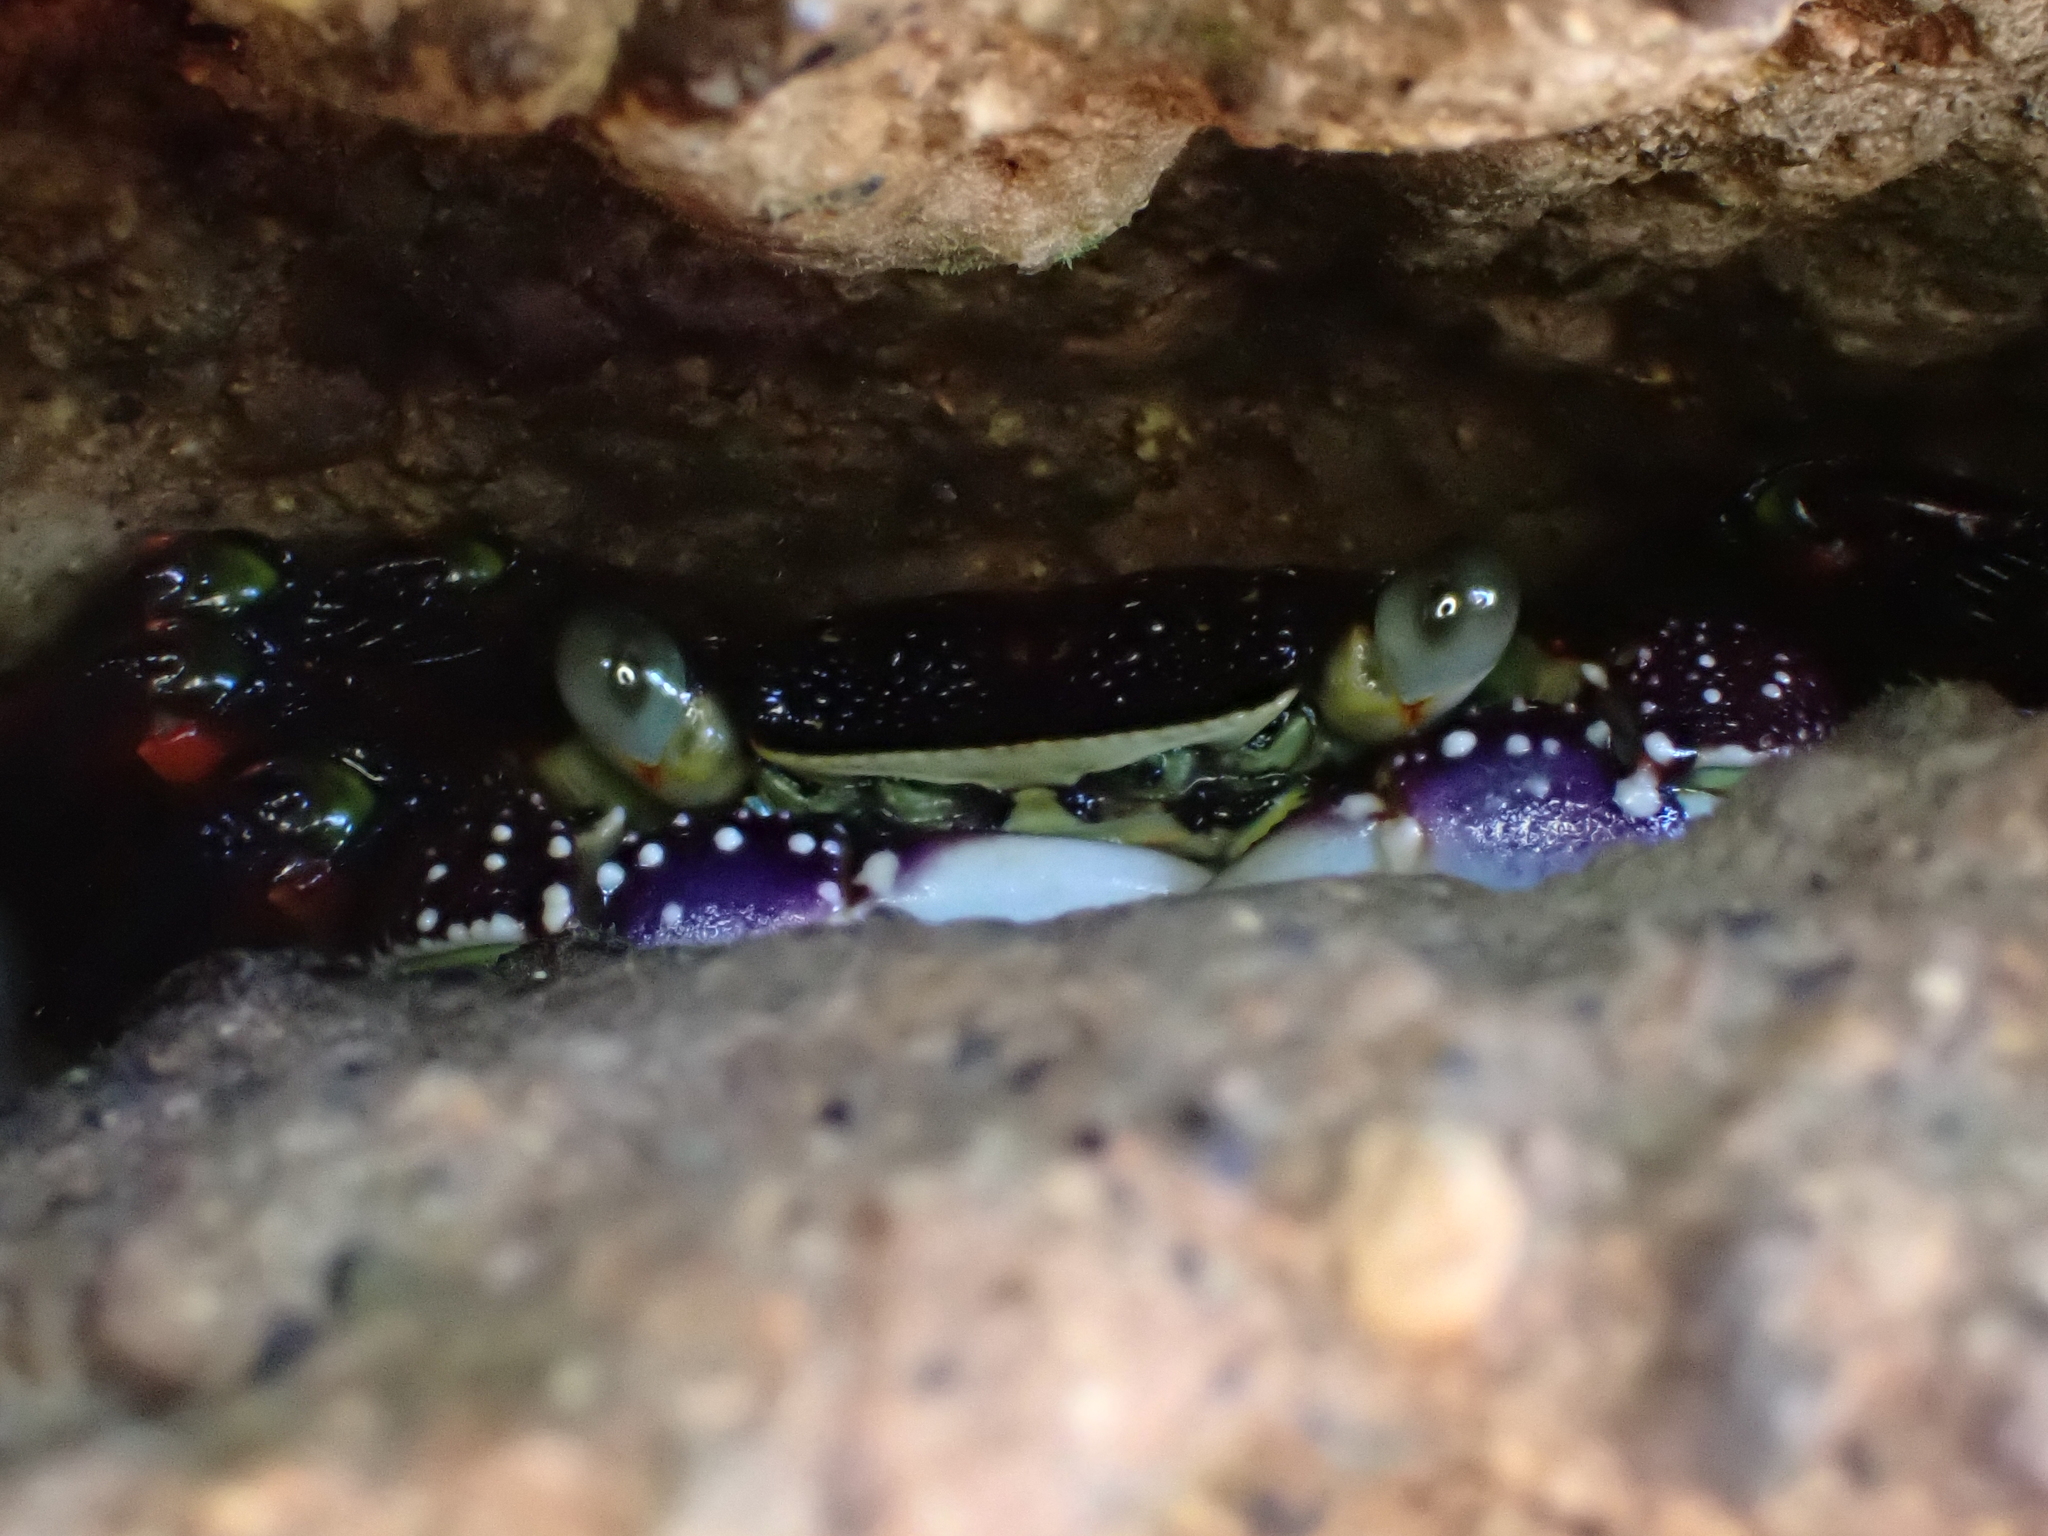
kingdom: Animalia
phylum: Arthropoda
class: Malacostraca
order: Decapoda
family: Grapsidae
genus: Leptograpsus
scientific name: Leptograpsus variegatus
